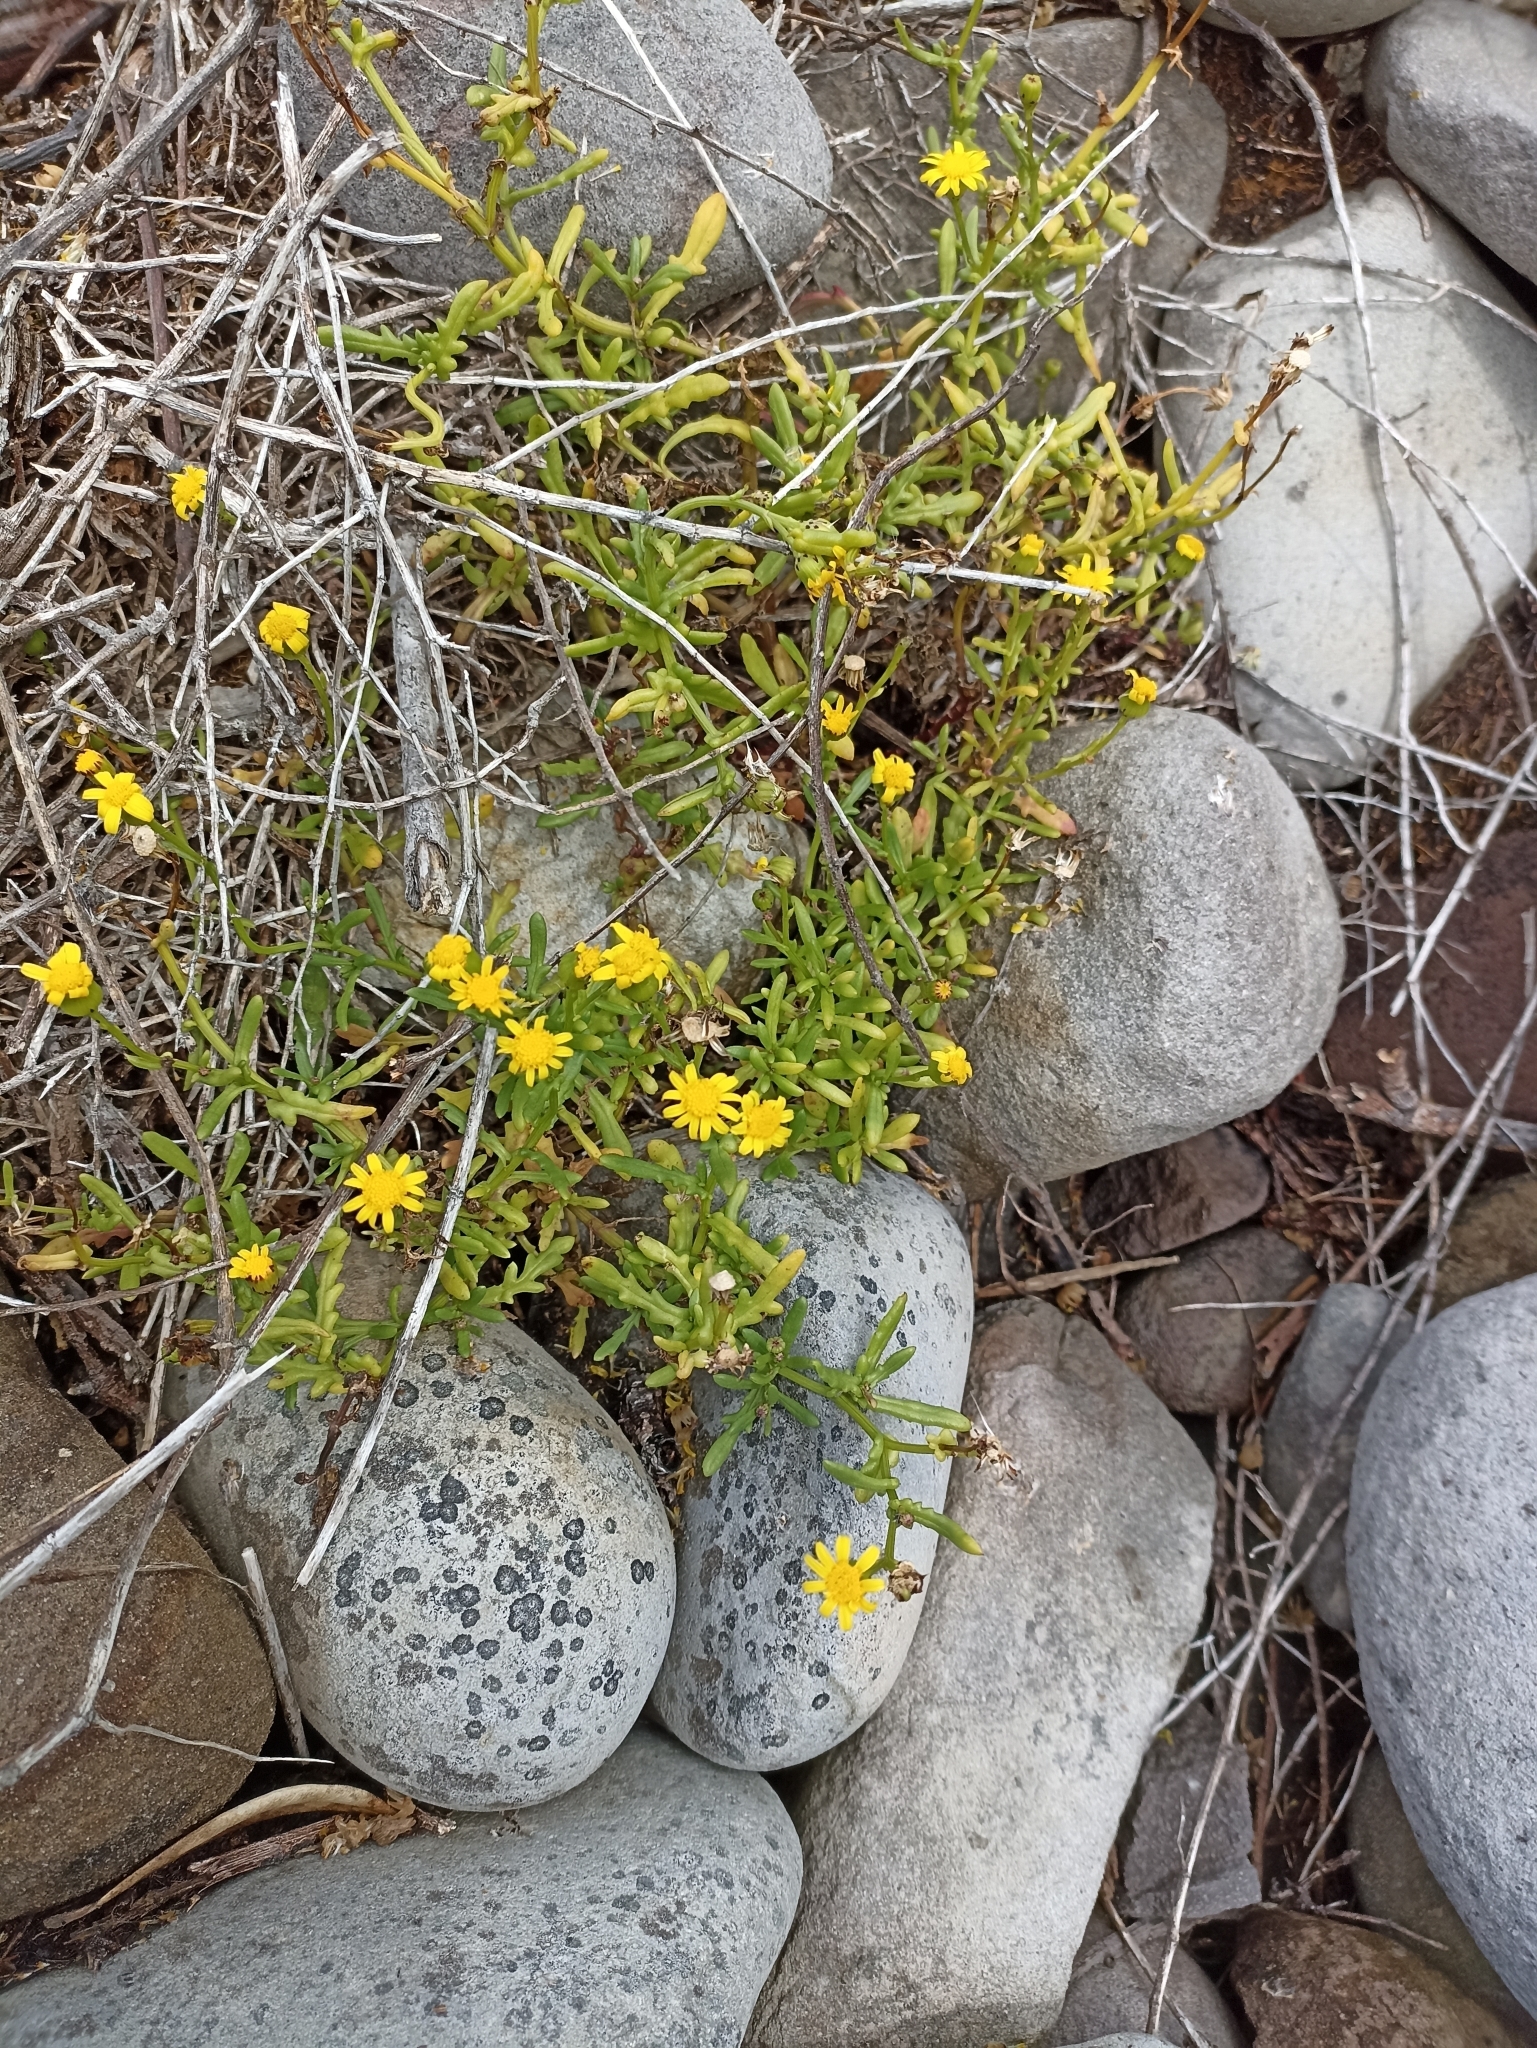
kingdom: Plantae
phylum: Tracheophyta
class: Magnoliopsida
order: Asterales
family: Asteraceae
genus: Senecio
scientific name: Senecio lautus
